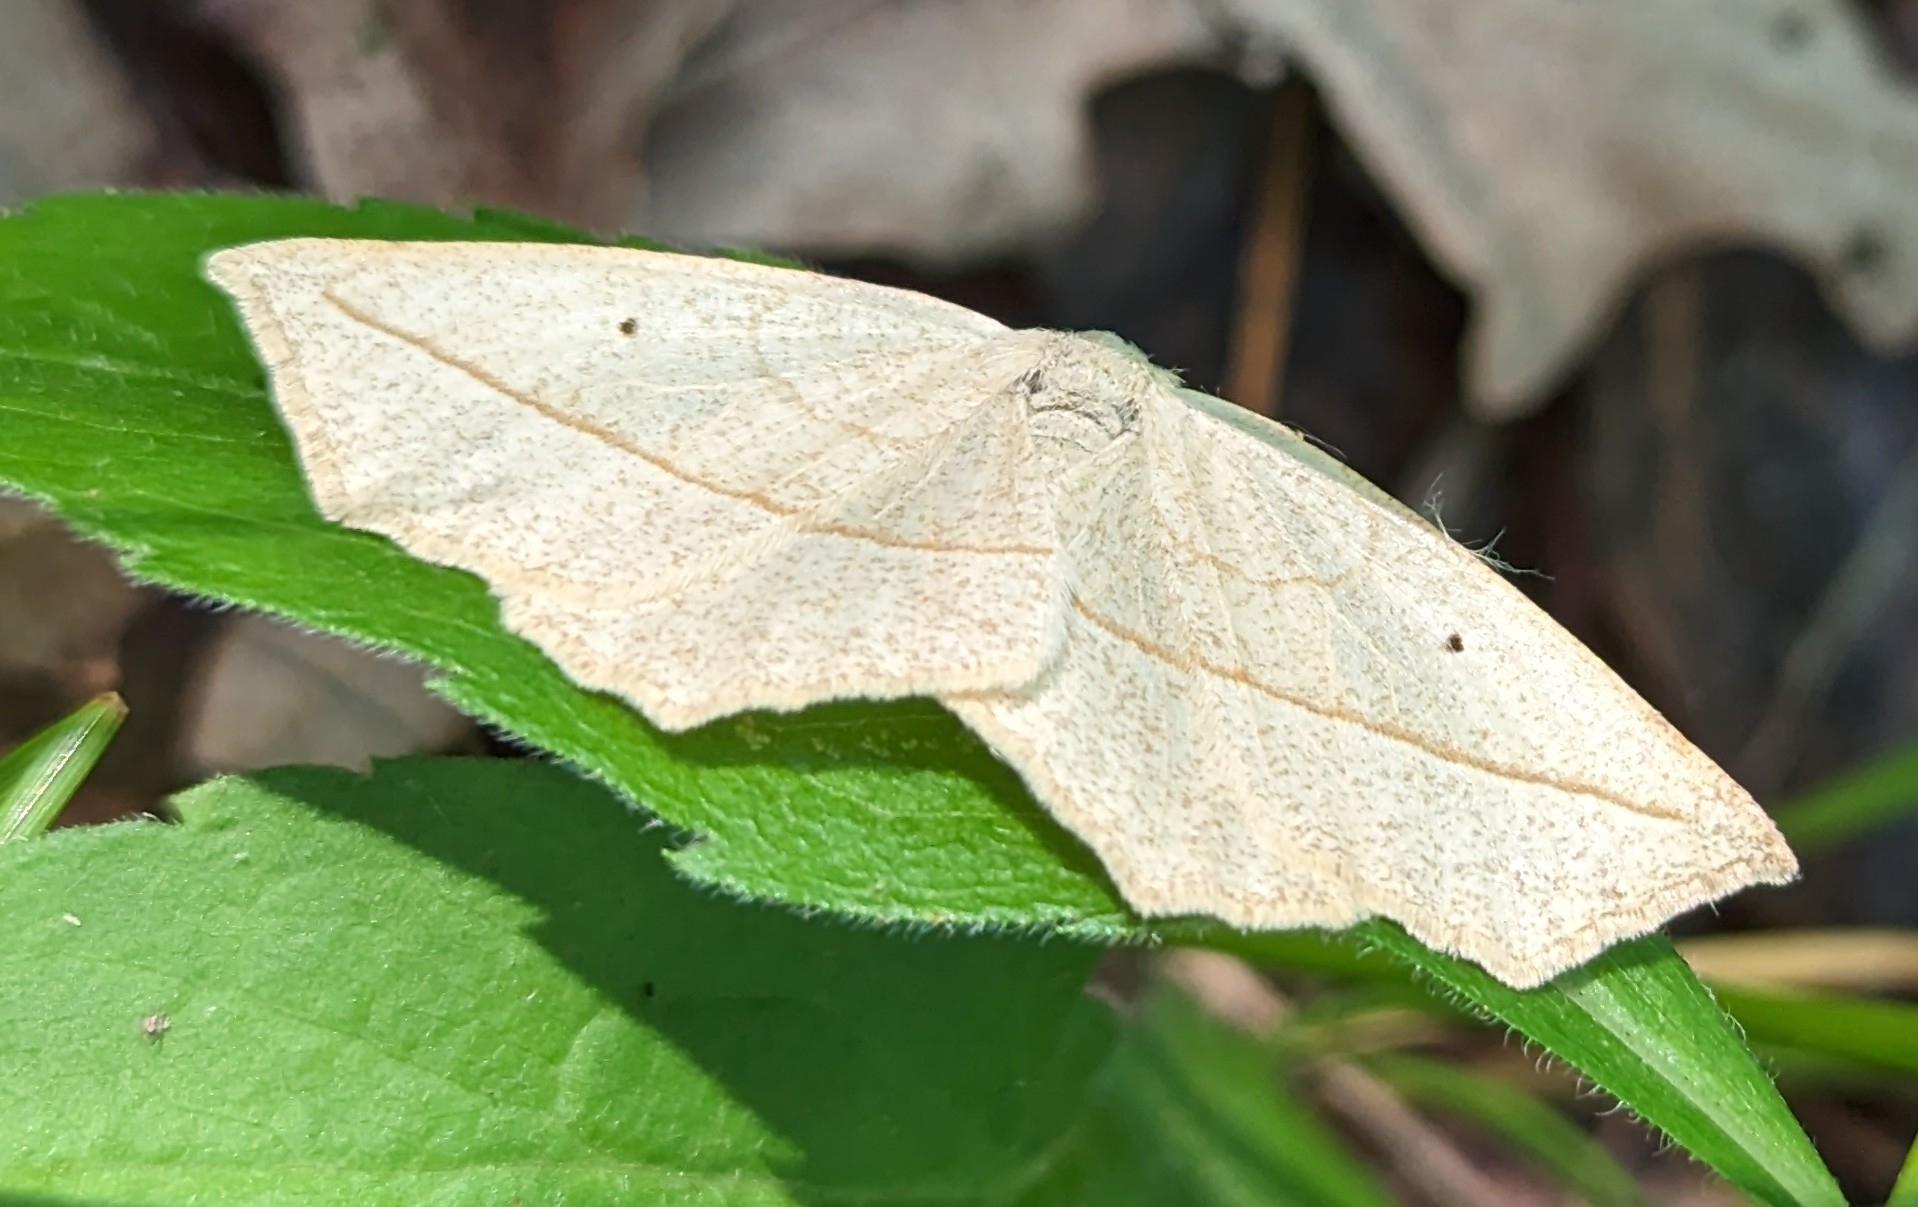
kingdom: Animalia
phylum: Arthropoda
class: Insecta
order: Lepidoptera
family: Geometridae
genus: Eusarca
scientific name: Eusarca confusaria
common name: Confused eusarca
